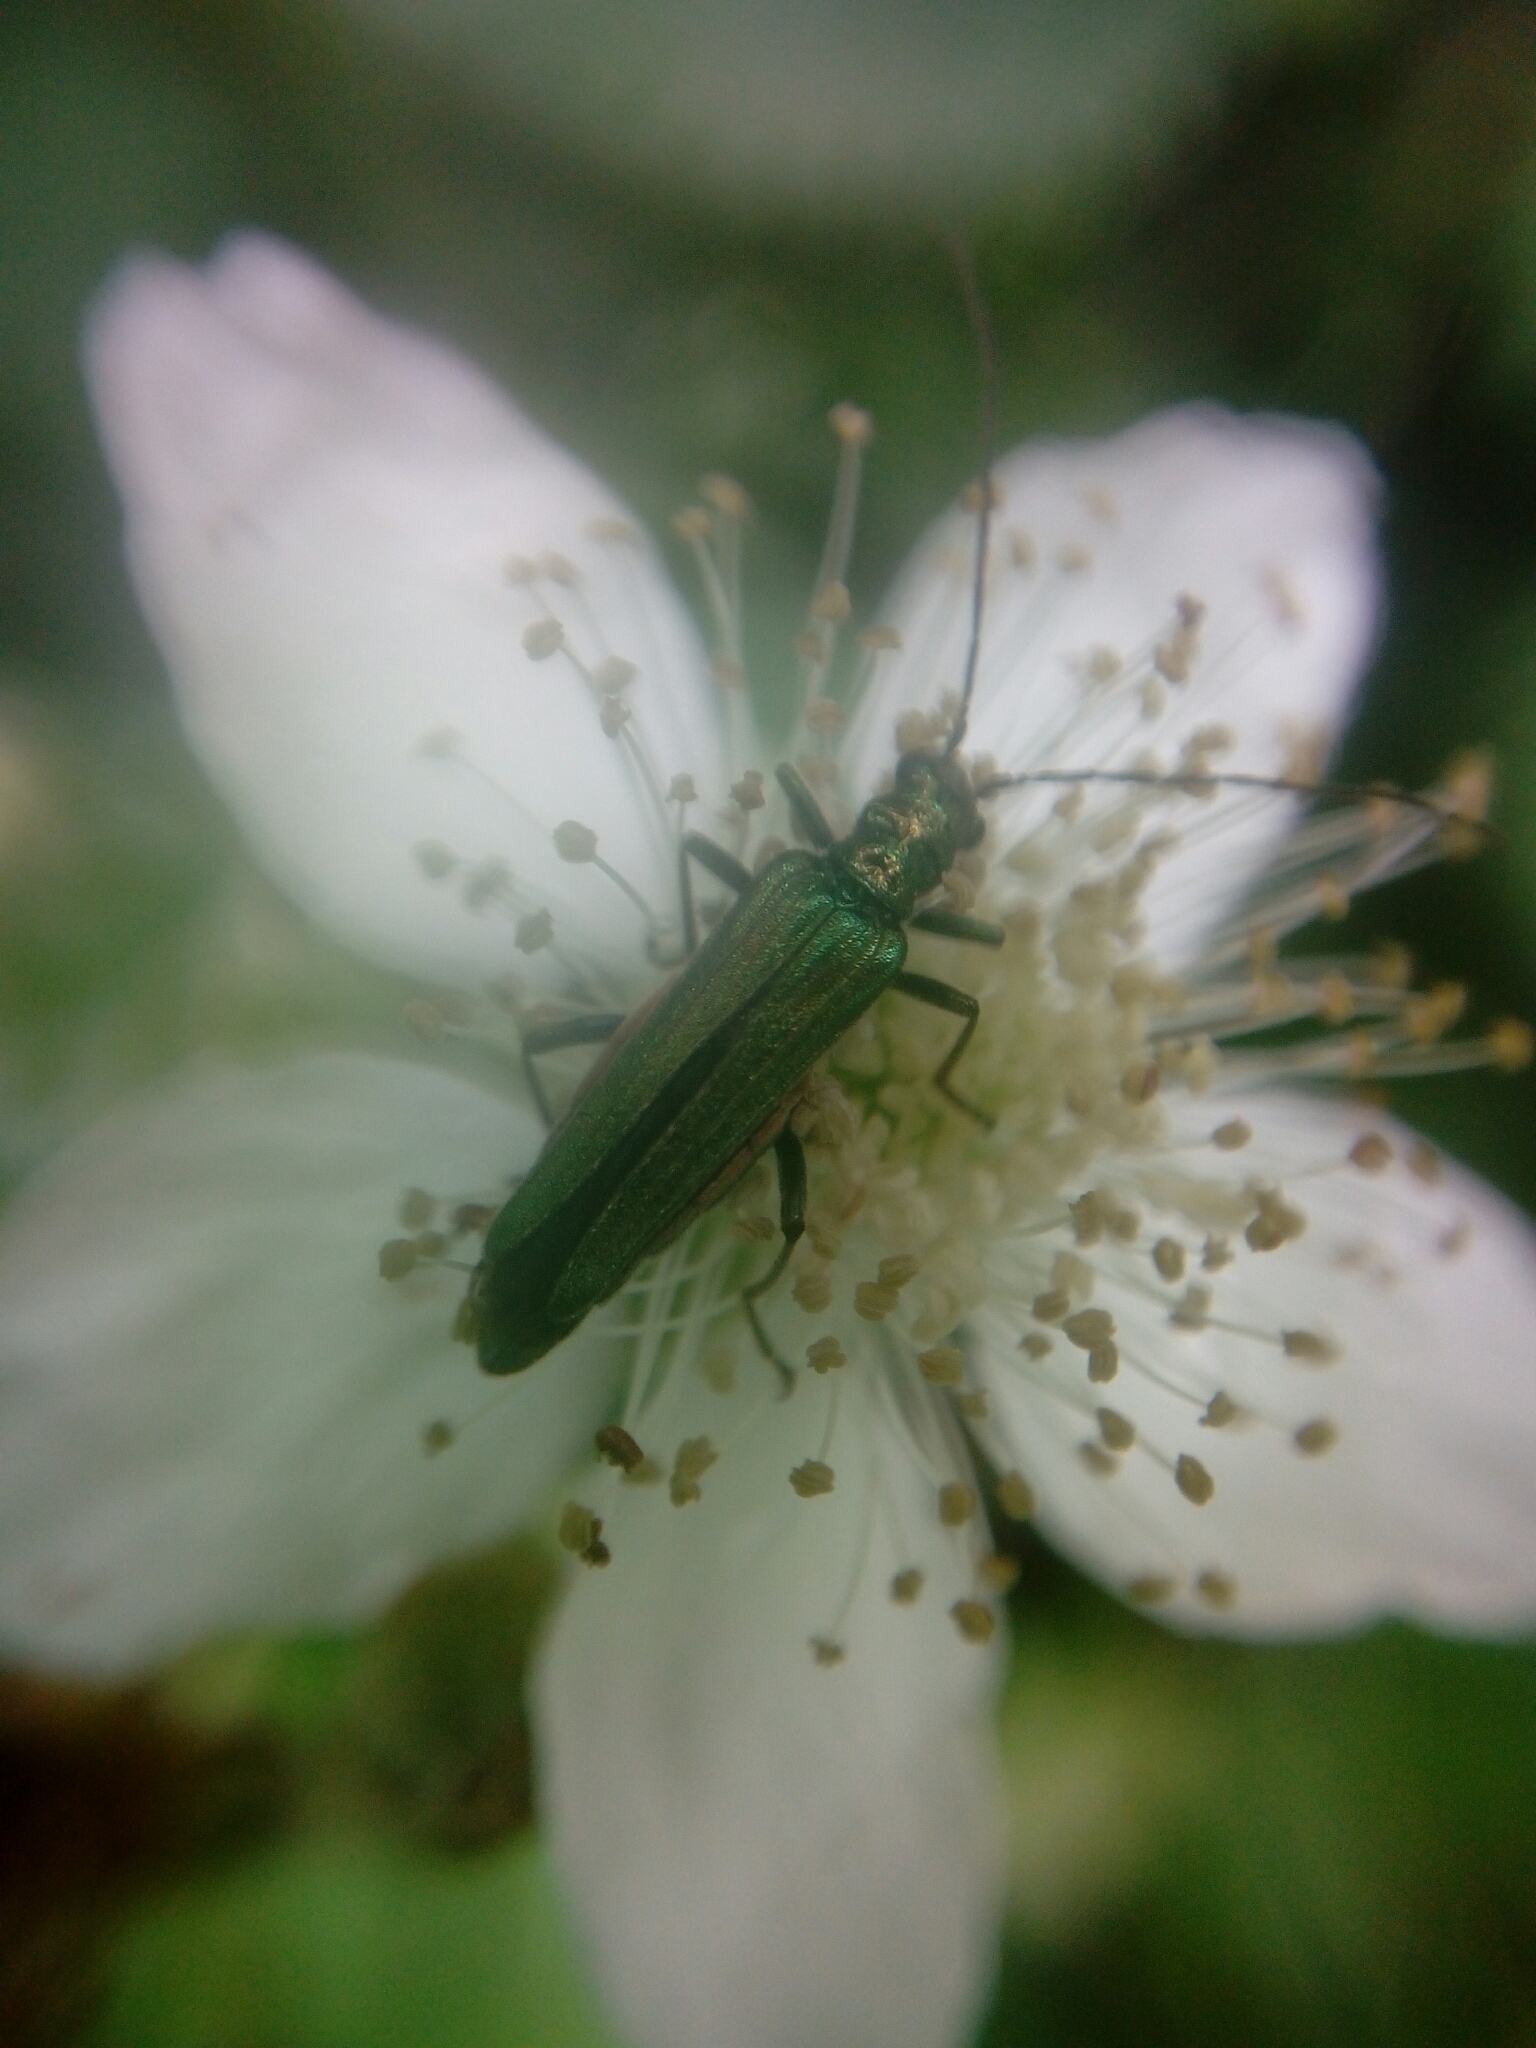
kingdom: Animalia
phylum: Arthropoda
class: Insecta
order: Coleoptera
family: Oedemeridae
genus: Oedemera
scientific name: Oedemera nobilis
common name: Swollen-thighed beetle
